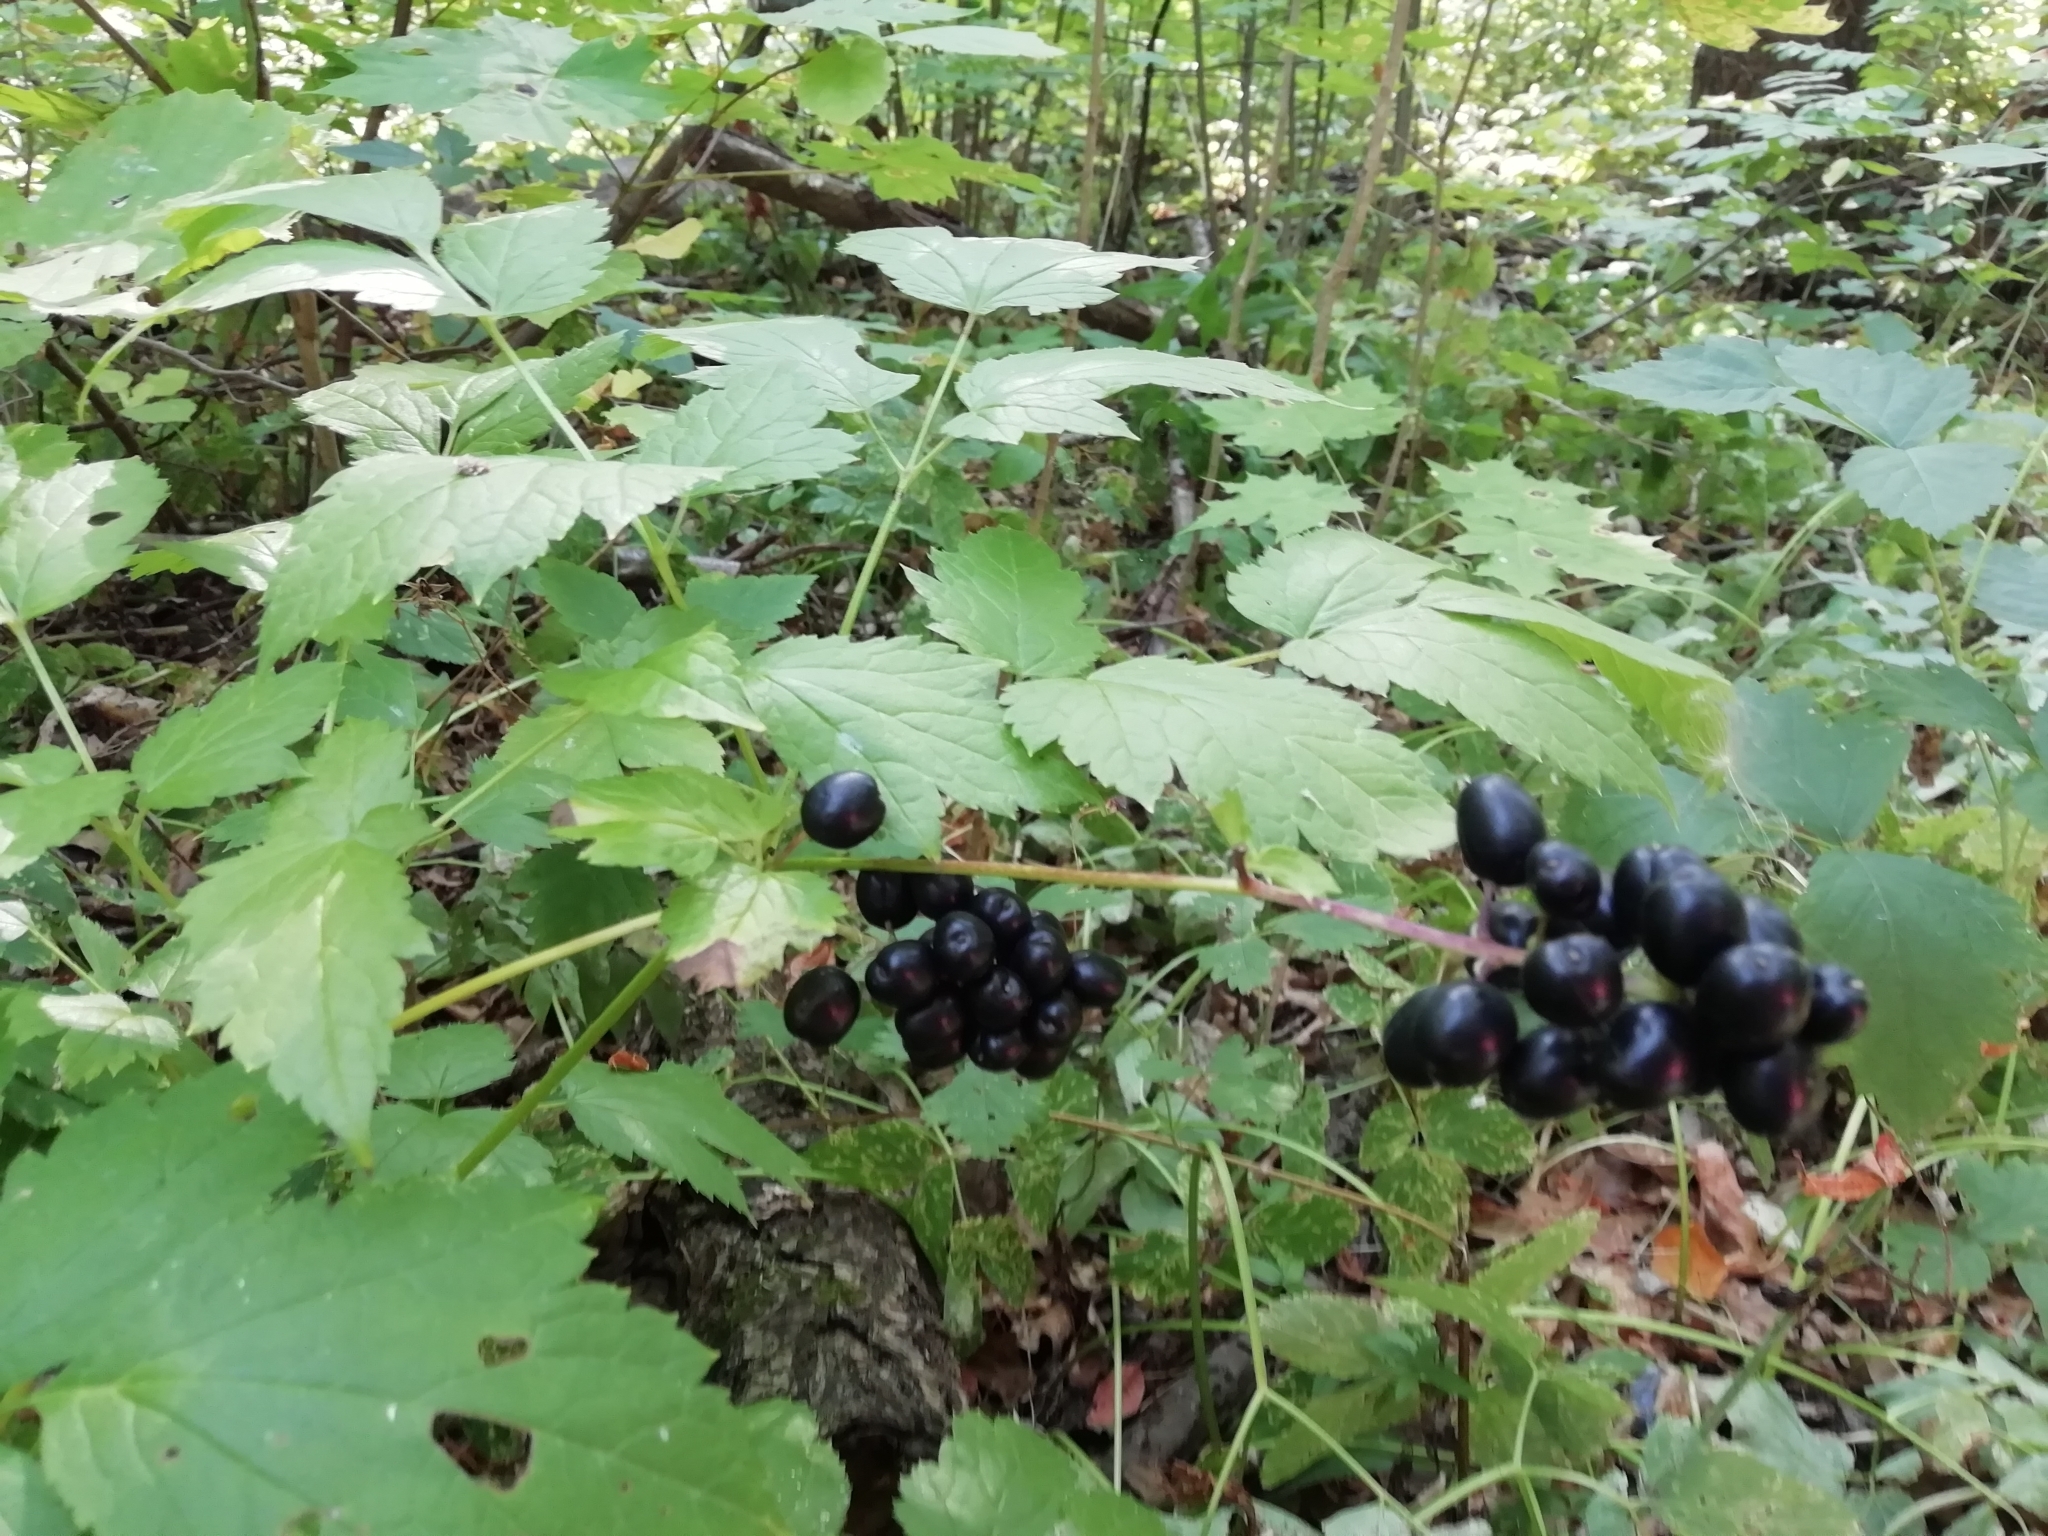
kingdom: Plantae
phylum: Tracheophyta
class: Magnoliopsida
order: Ranunculales
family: Ranunculaceae
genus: Actaea
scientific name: Actaea spicata
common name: Baneberry
